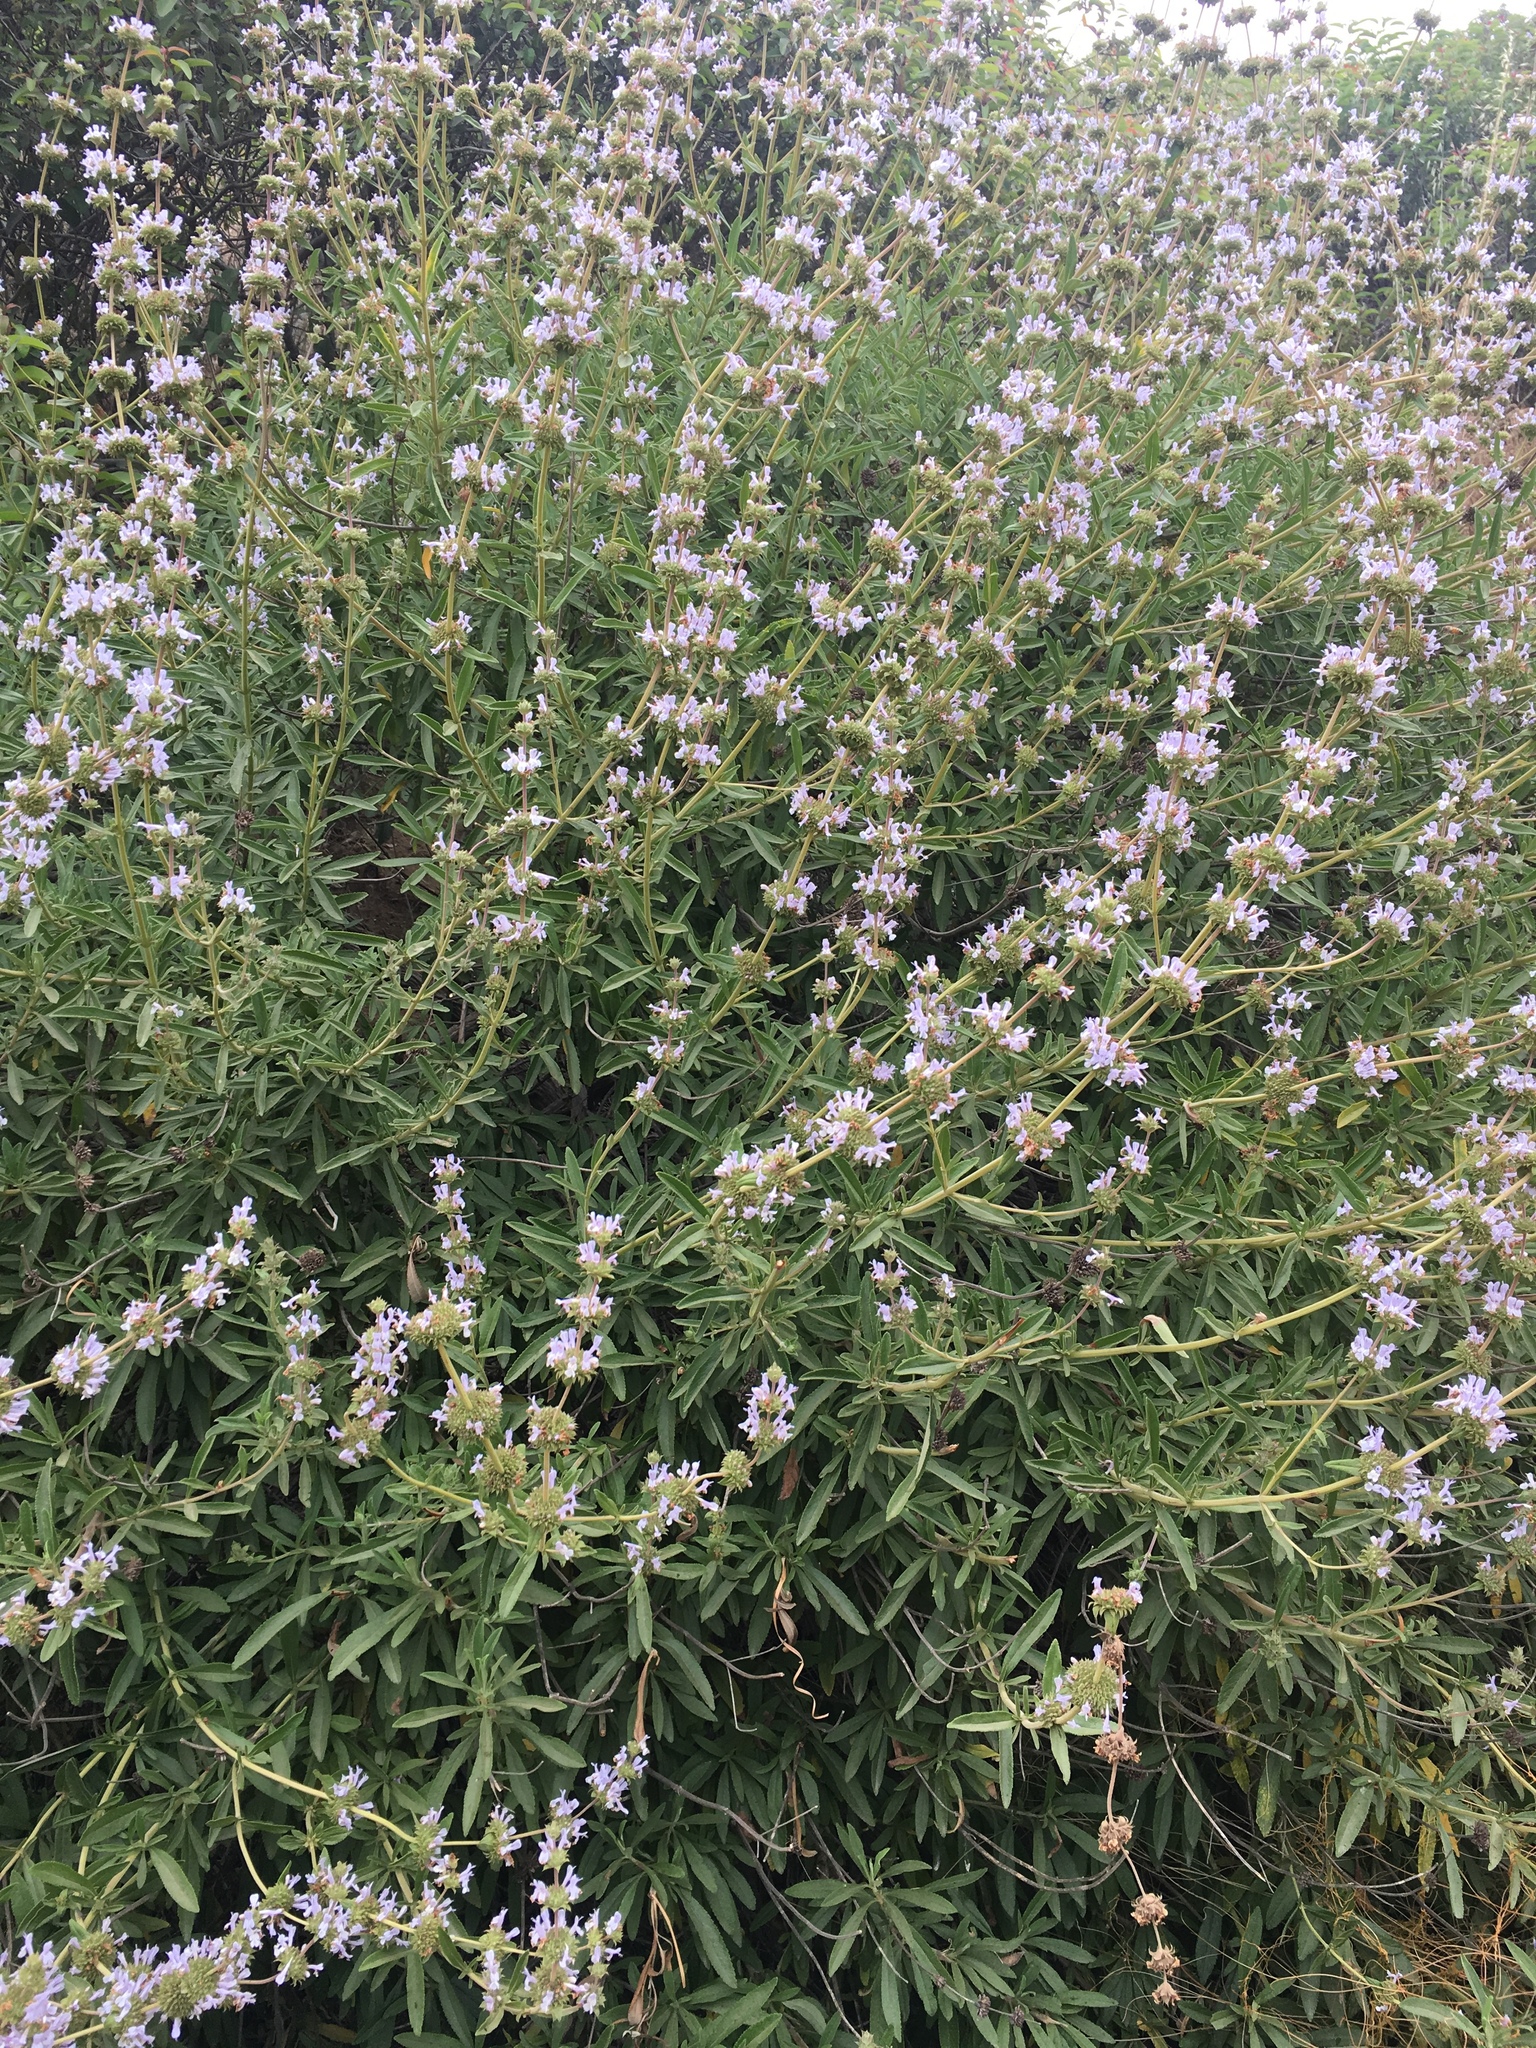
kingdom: Plantae
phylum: Tracheophyta
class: Magnoliopsida
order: Lamiales
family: Lamiaceae
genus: Salvia
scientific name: Salvia mellifera
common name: Black sage
